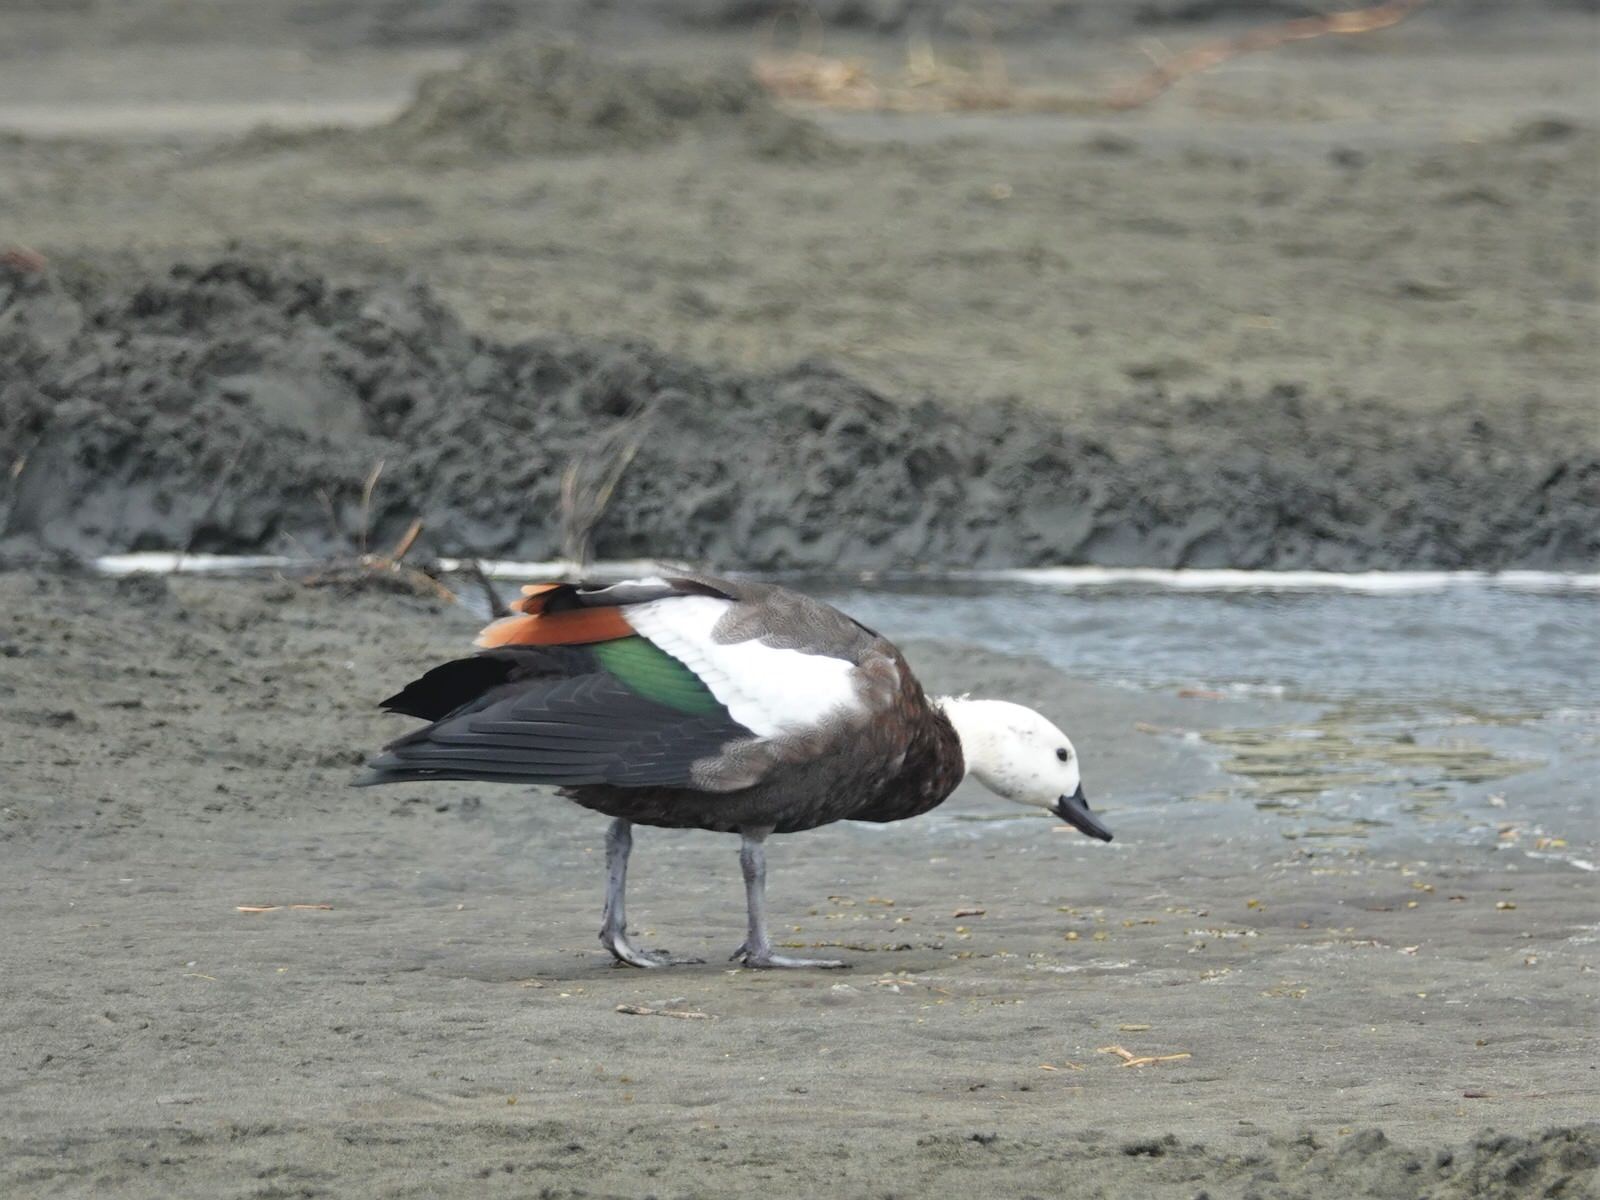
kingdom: Animalia
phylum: Chordata
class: Aves
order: Anseriformes
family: Anatidae
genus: Tadorna
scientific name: Tadorna variegata
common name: Paradise shelduck
